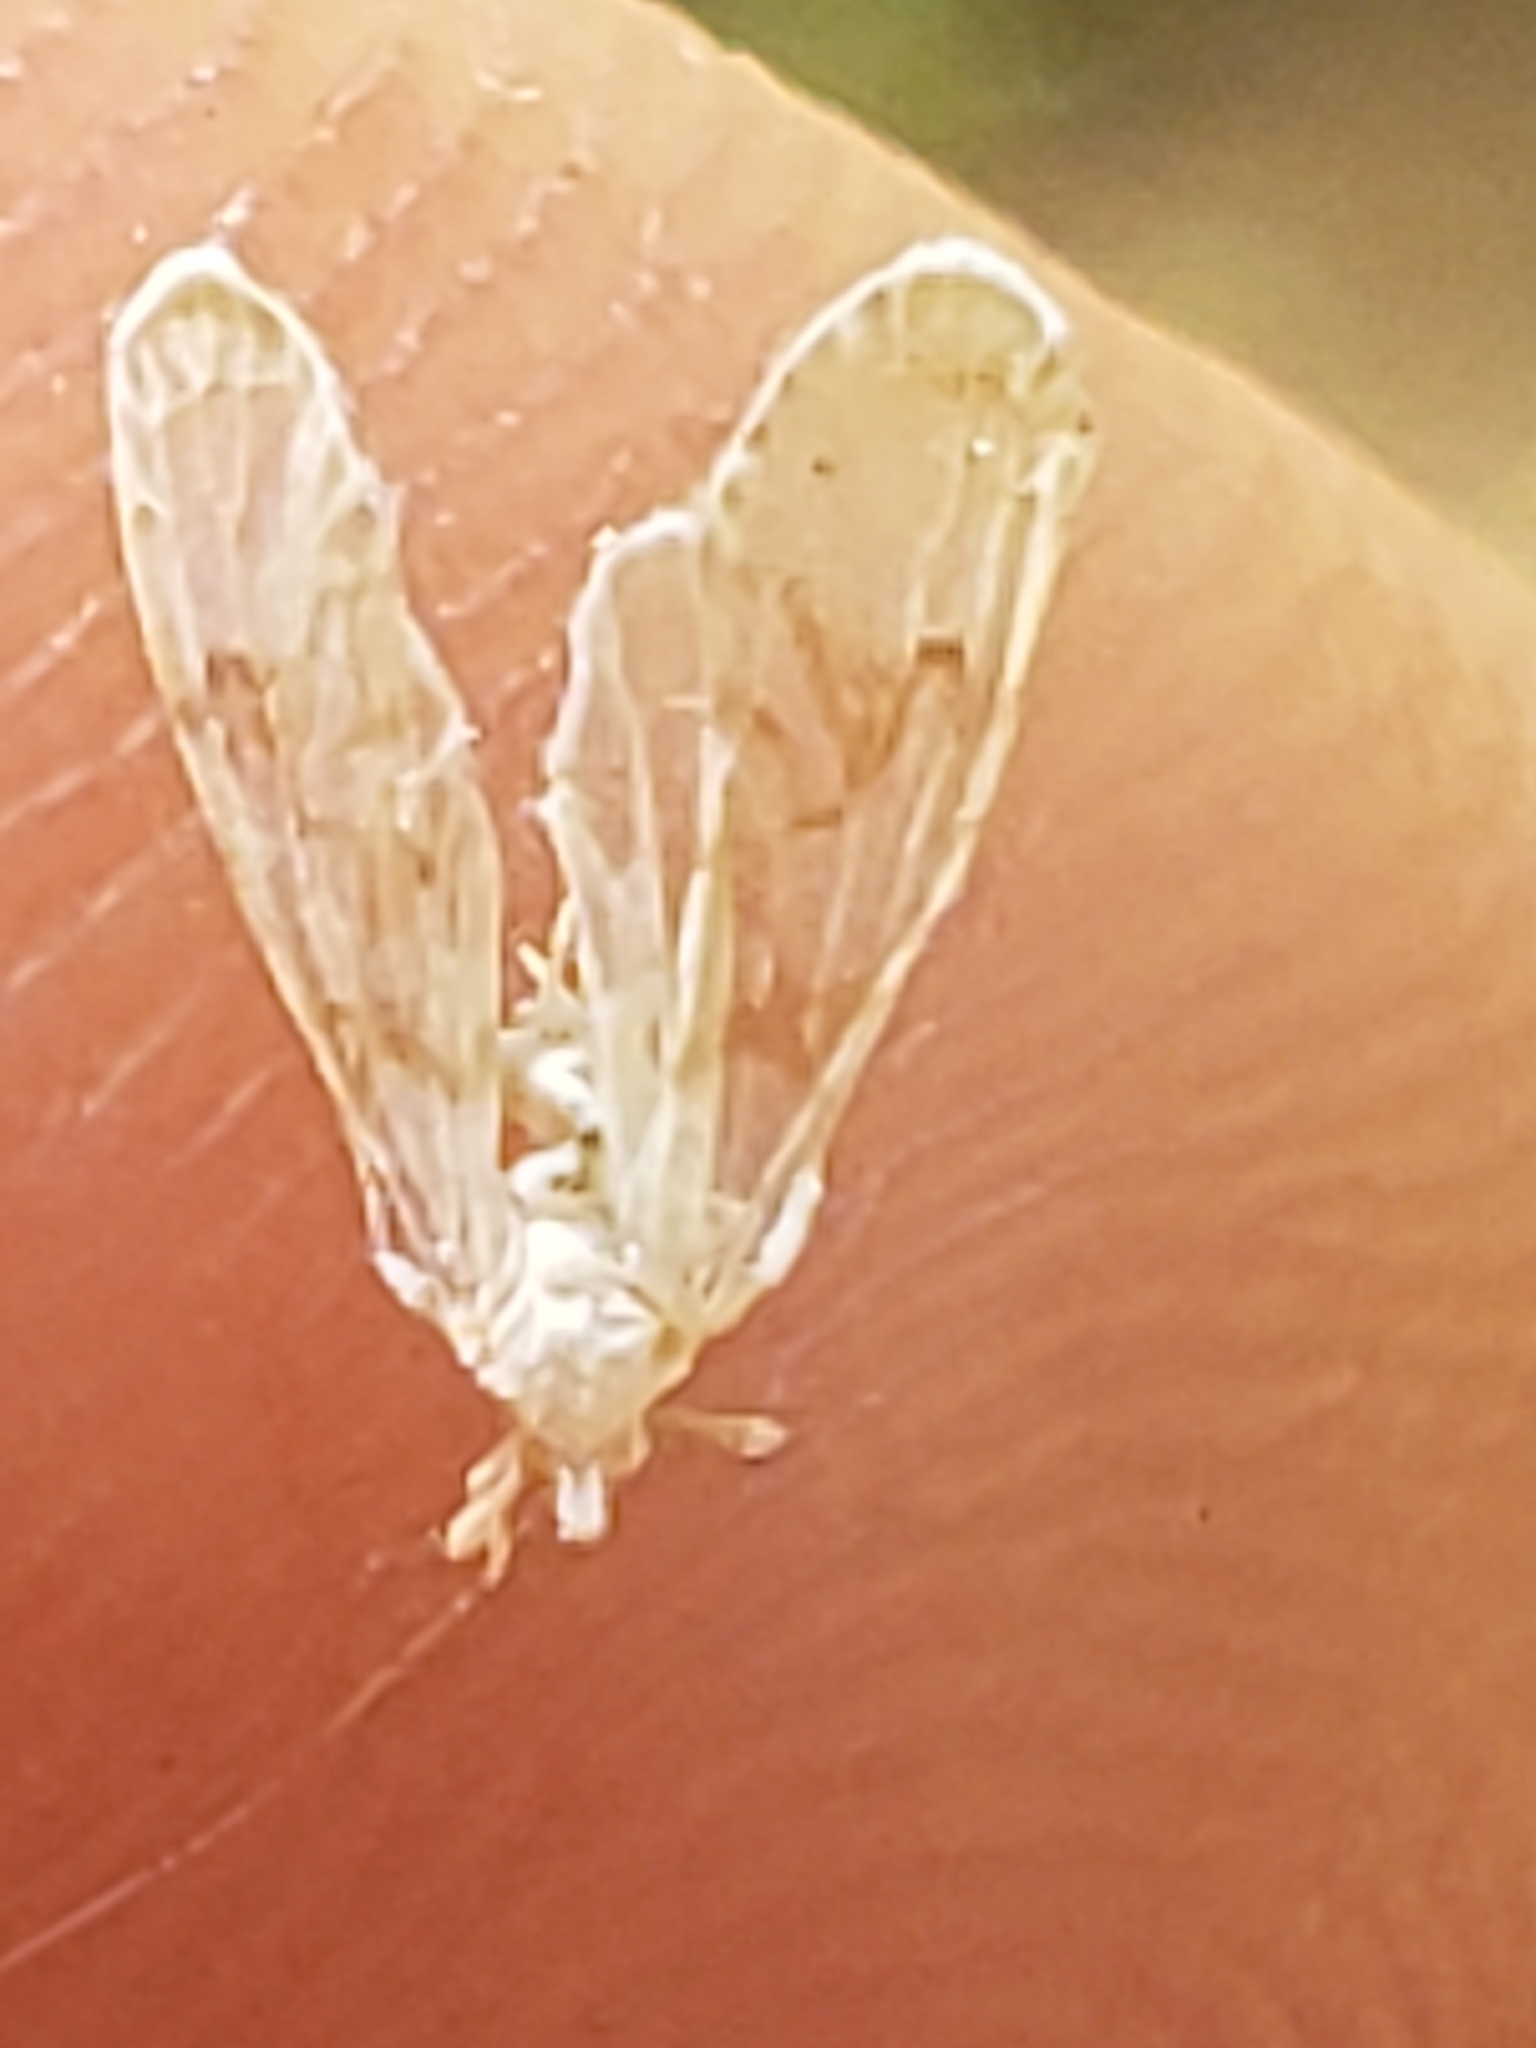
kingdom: Animalia
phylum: Arthropoda
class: Insecta
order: Hemiptera
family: Derbidae
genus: Anotia
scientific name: Anotia robertsonii
